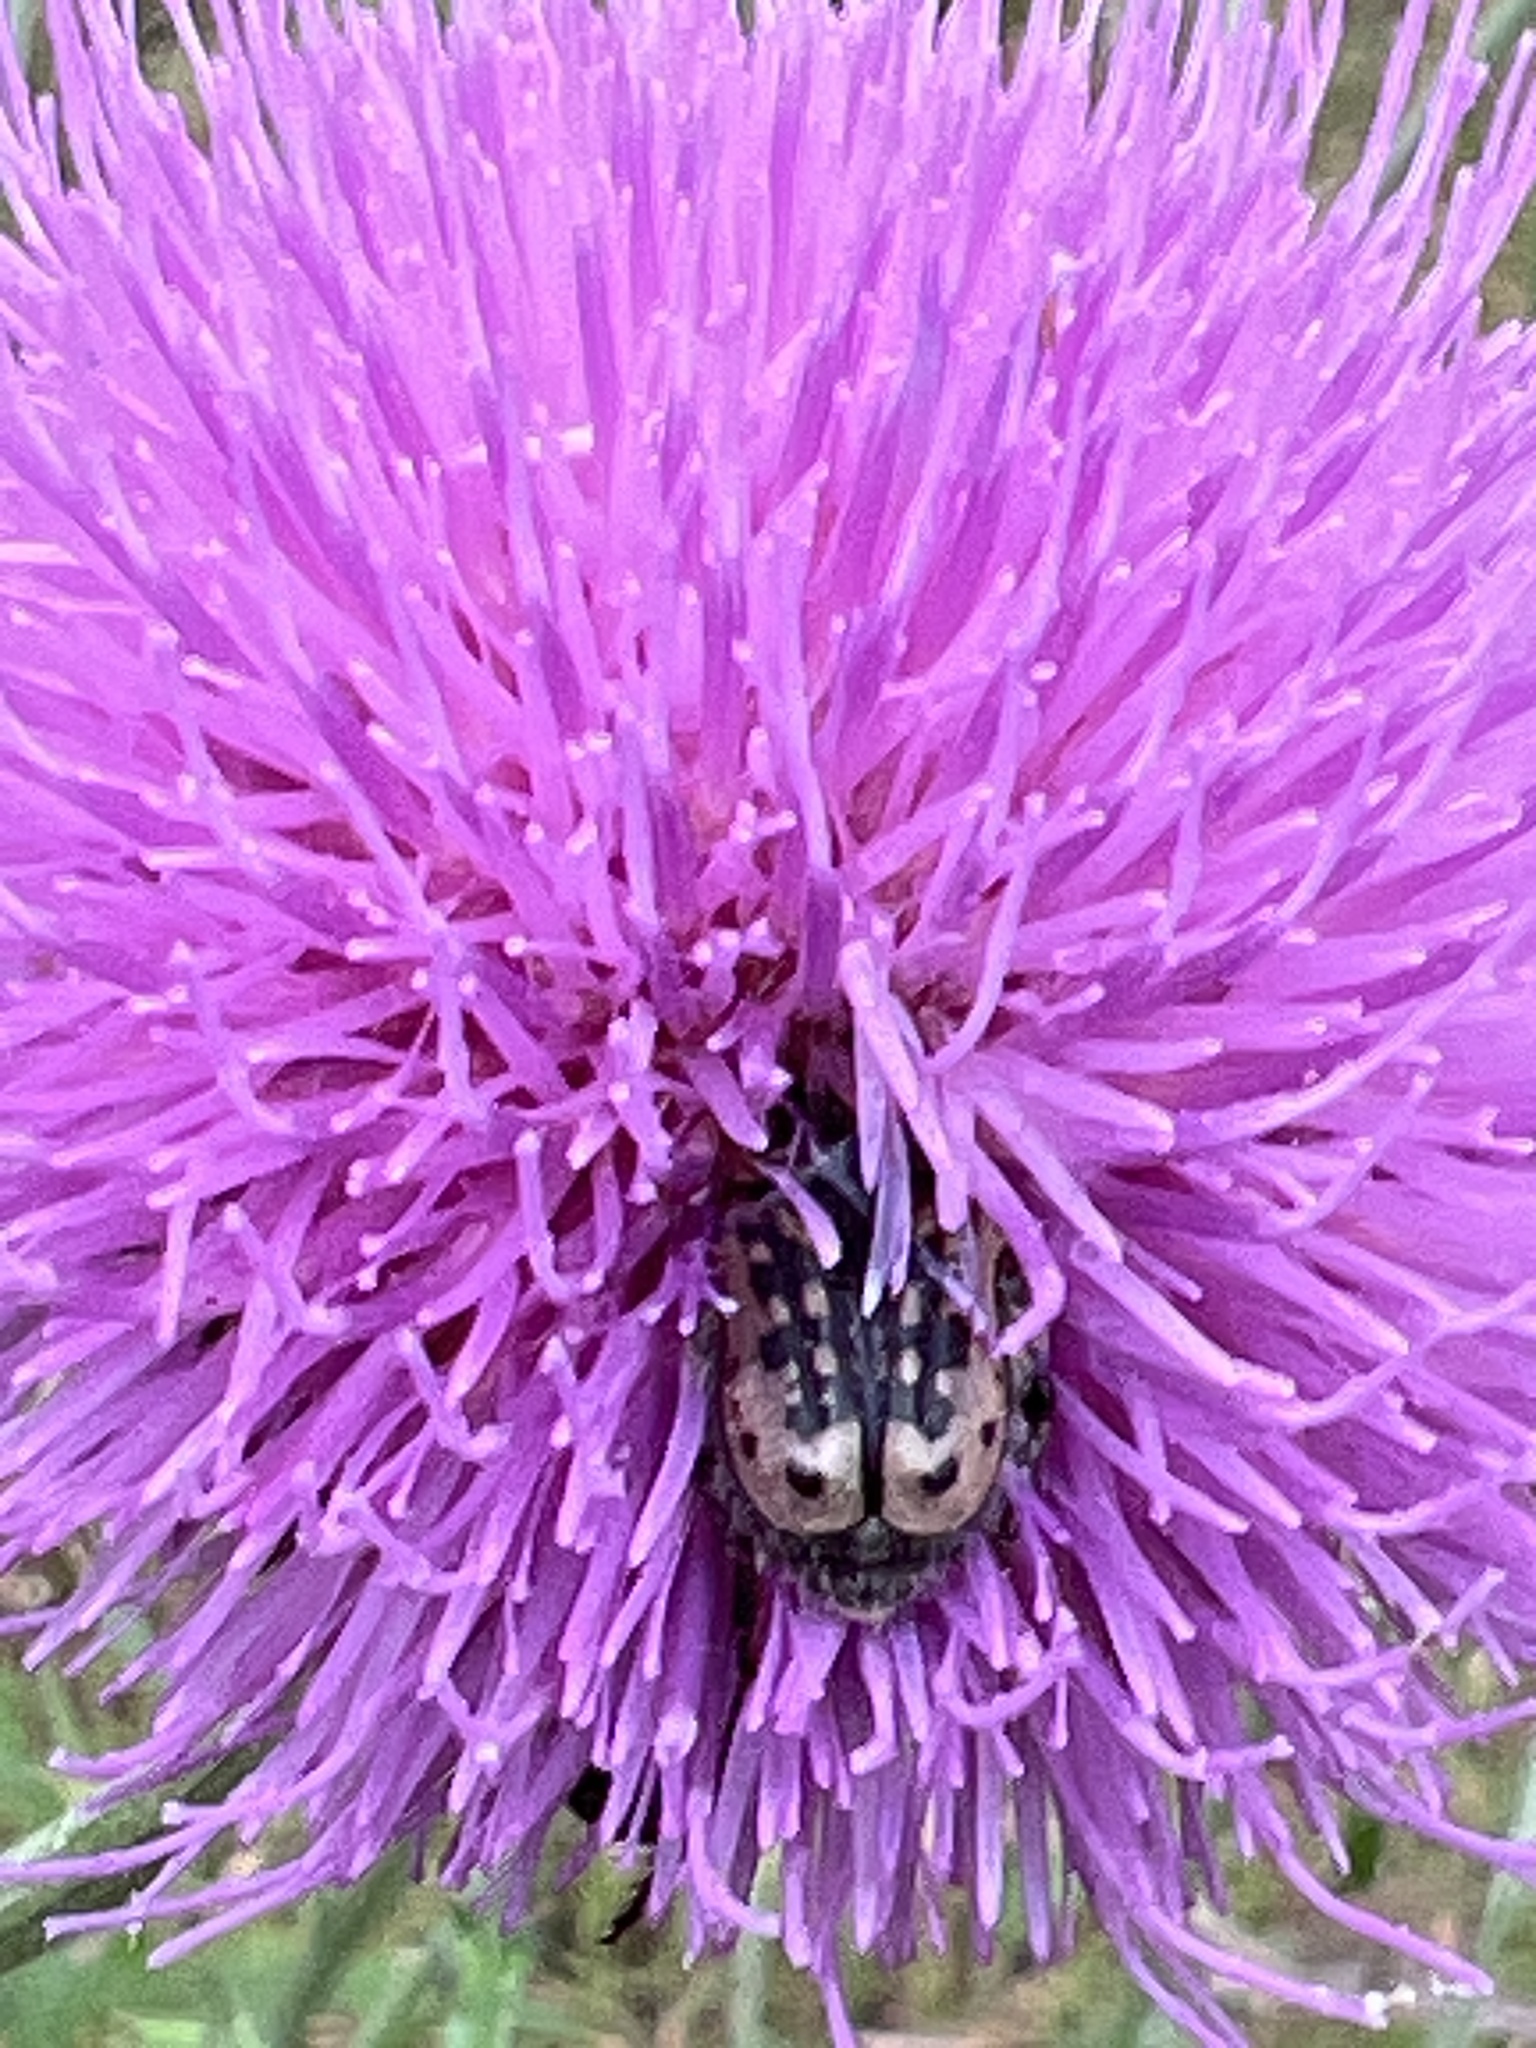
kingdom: Animalia
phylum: Arthropoda
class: Insecta
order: Coleoptera
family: Scarabaeidae
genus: Euphoria
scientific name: Euphoria kernii
